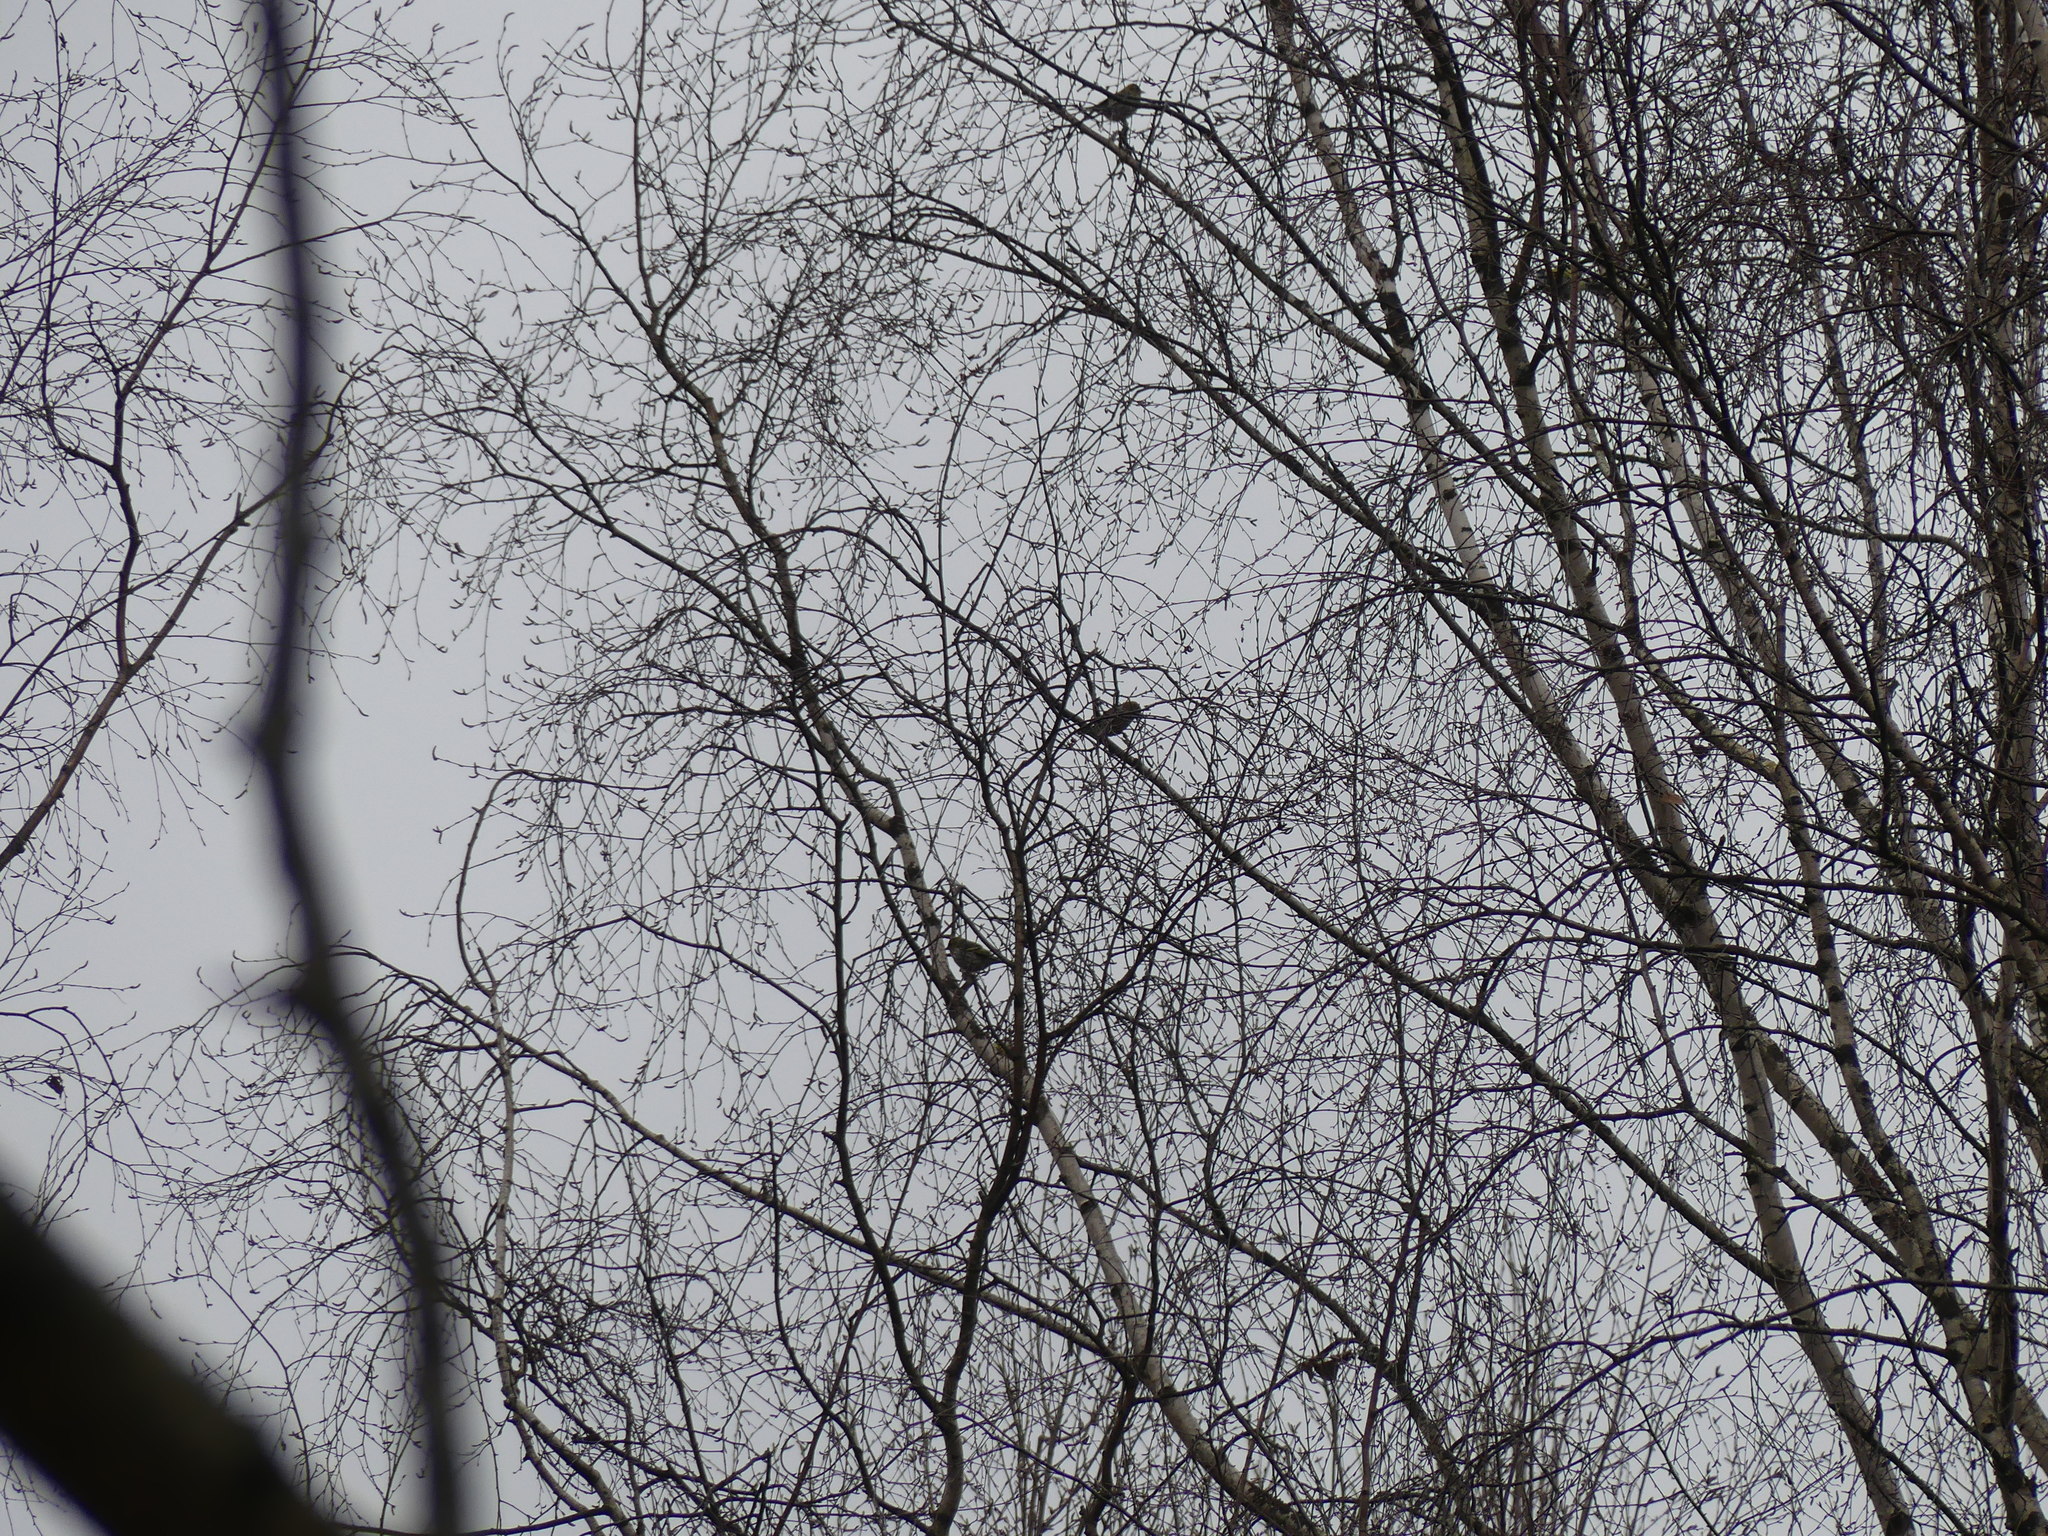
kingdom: Animalia
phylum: Chordata
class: Aves
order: Passeriformes
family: Fringillidae
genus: Spinus
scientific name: Spinus spinus
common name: Eurasian siskin
